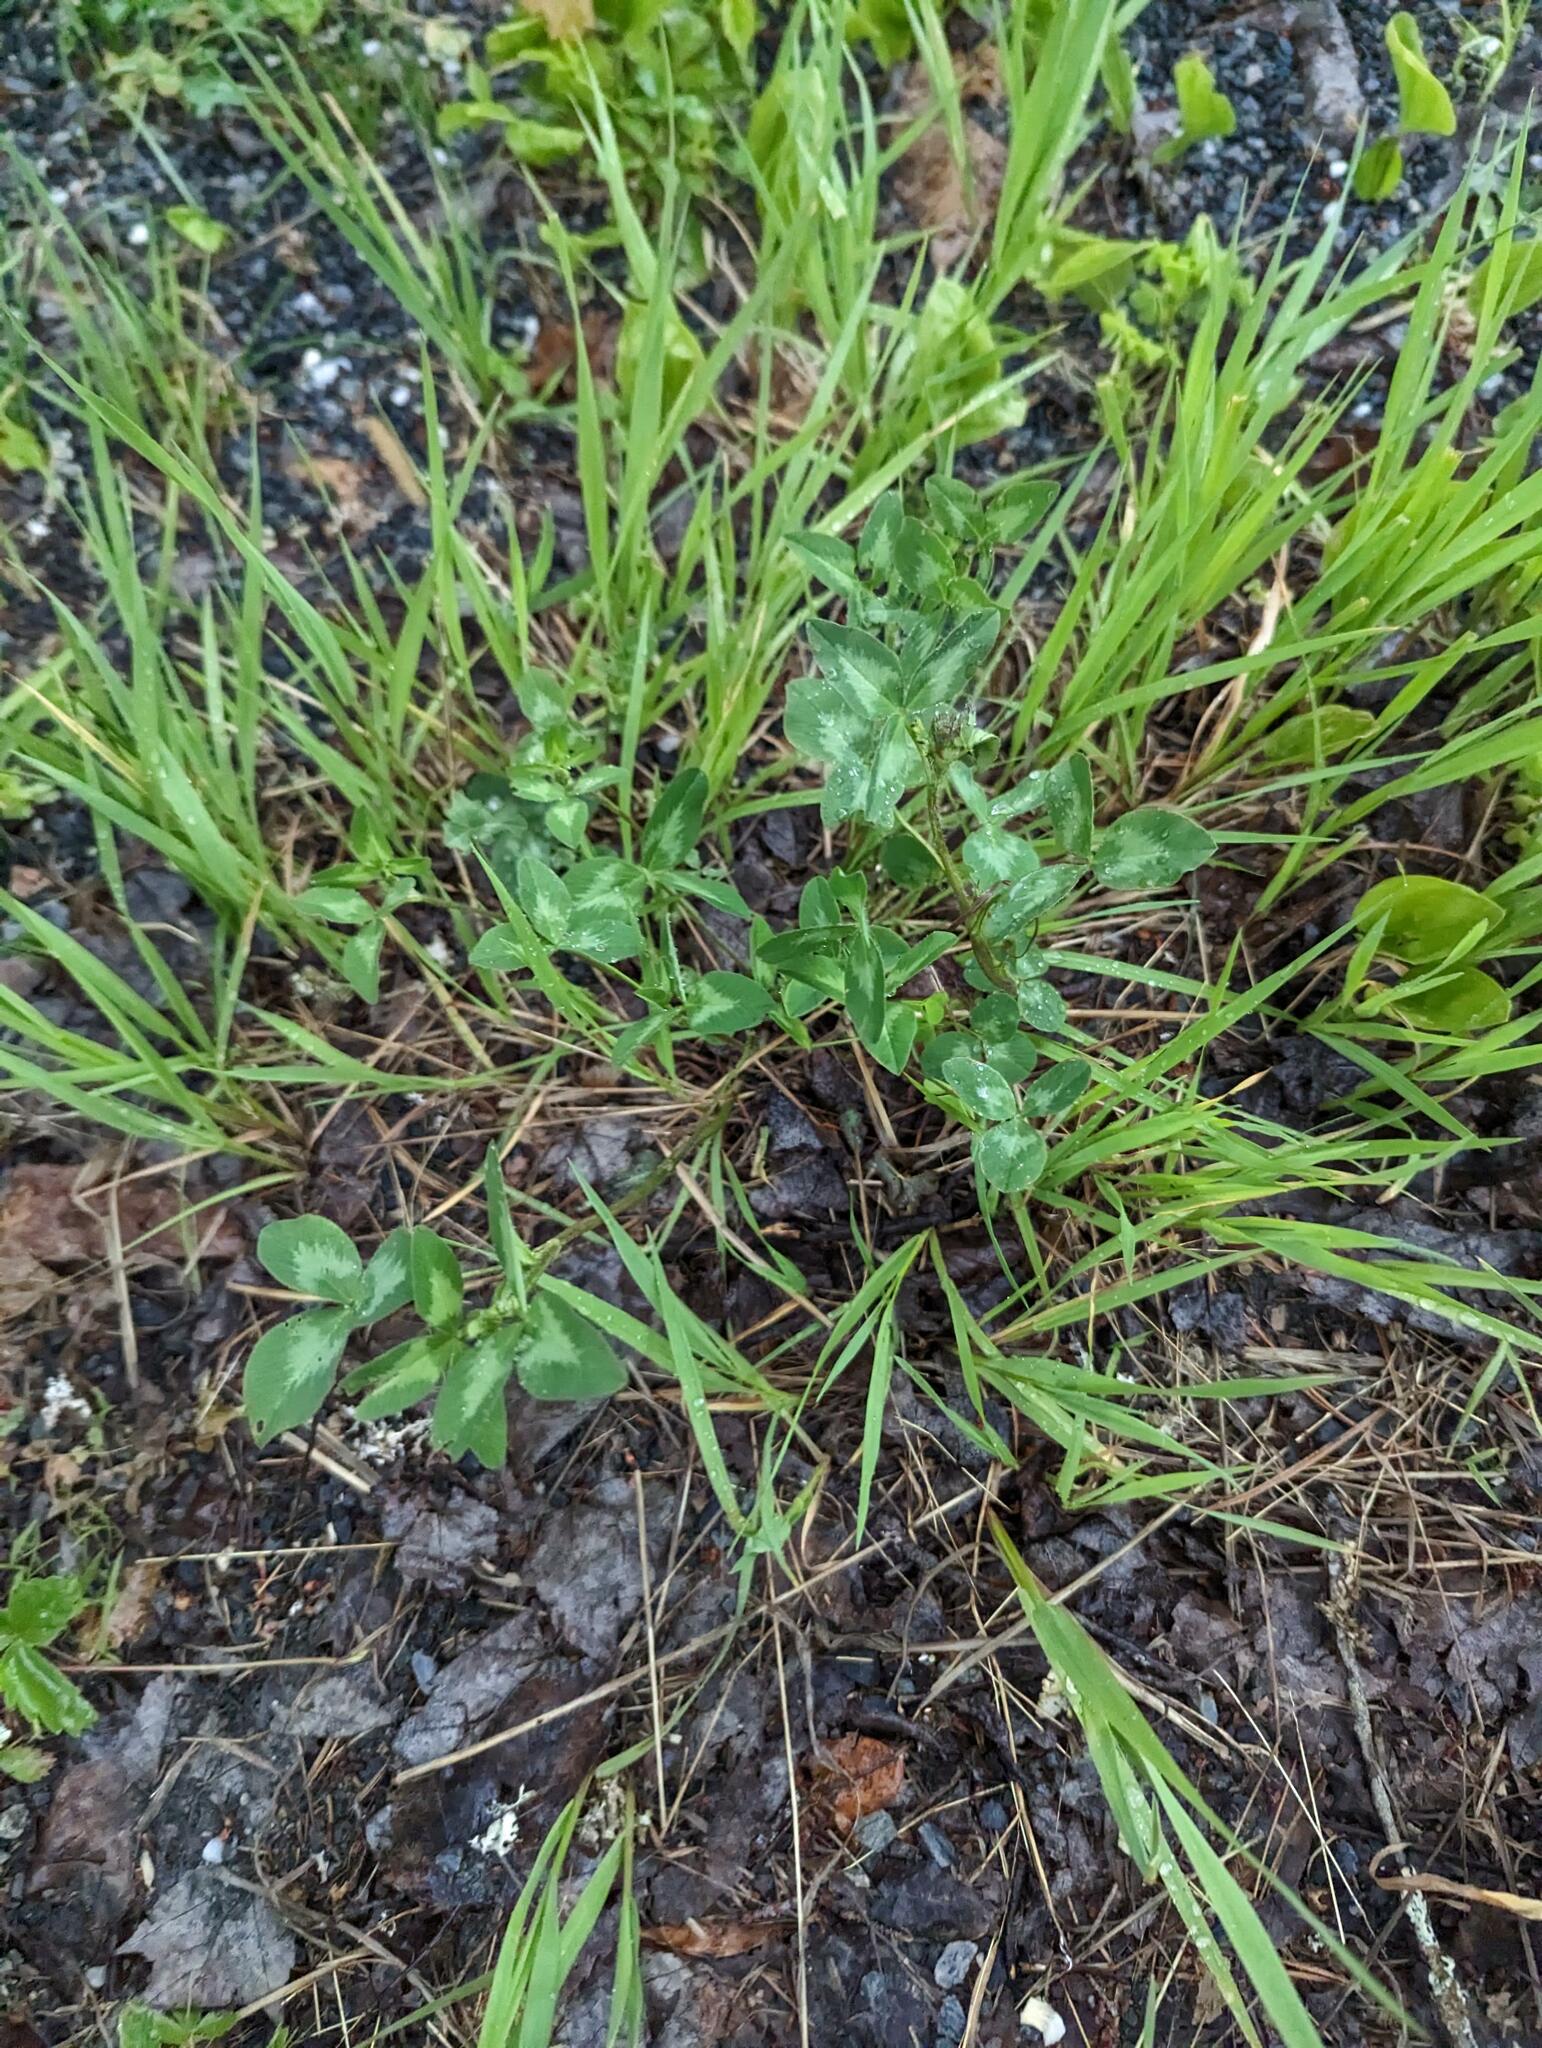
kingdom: Plantae
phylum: Tracheophyta
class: Magnoliopsida
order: Fabales
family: Fabaceae
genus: Trifolium
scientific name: Trifolium pratense
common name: Red clover
